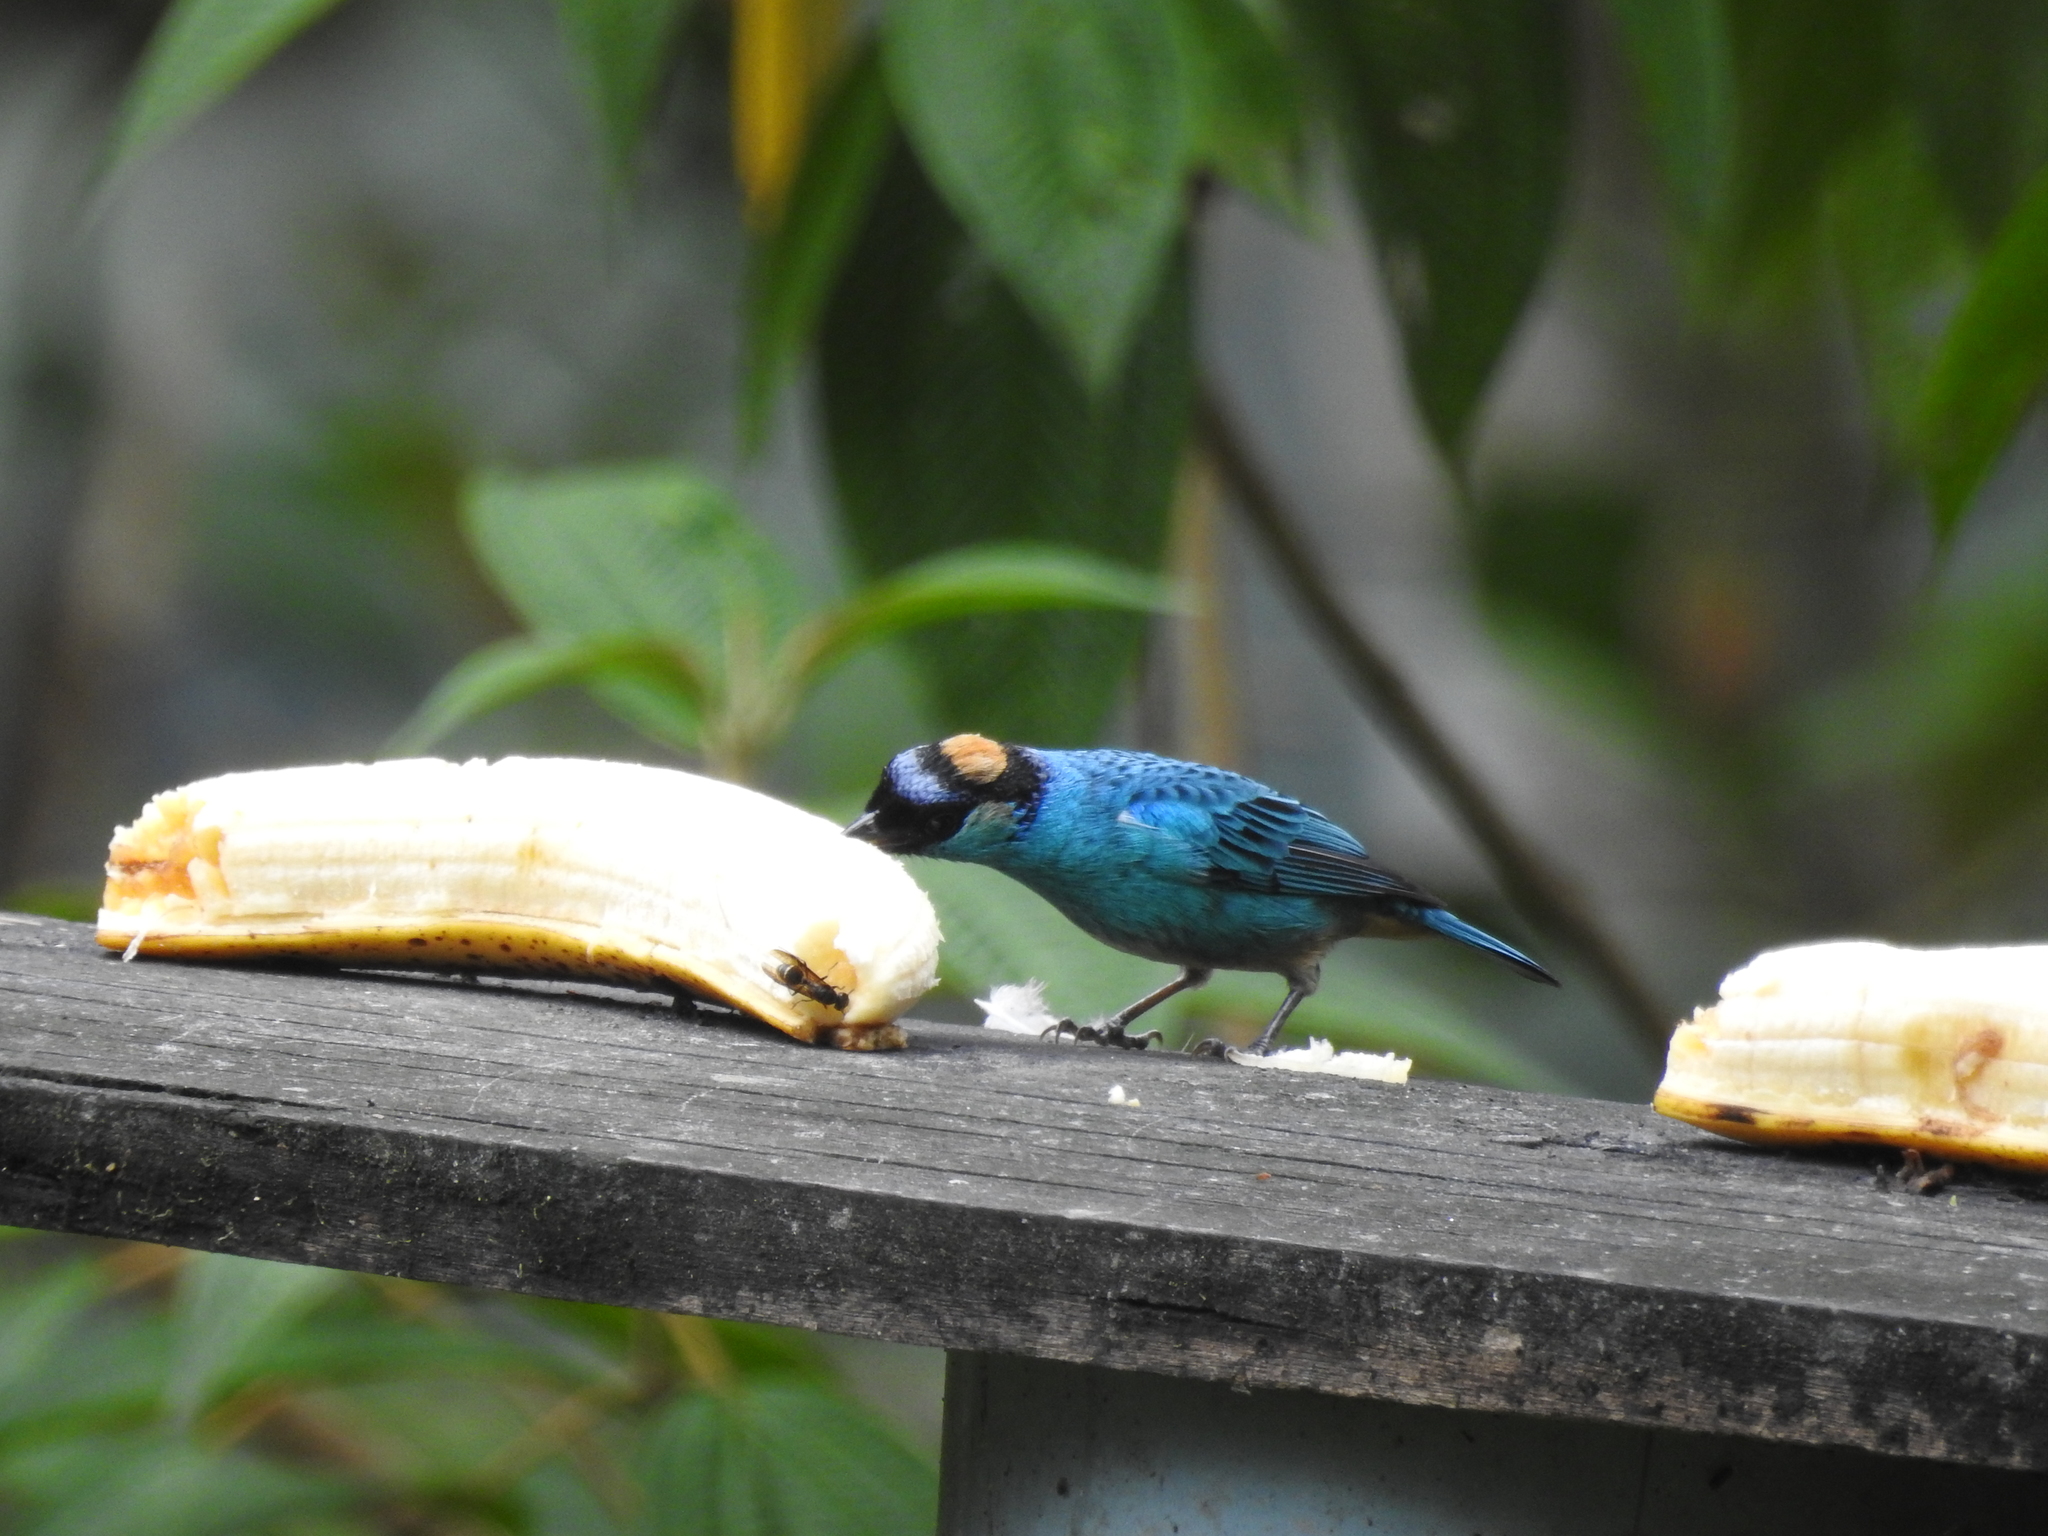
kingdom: Animalia
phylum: Chordata
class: Aves
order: Passeriformes
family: Thraupidae
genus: Chalcothraupis
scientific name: Chalcothraupis ruficervix
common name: Golden-naped tanager
